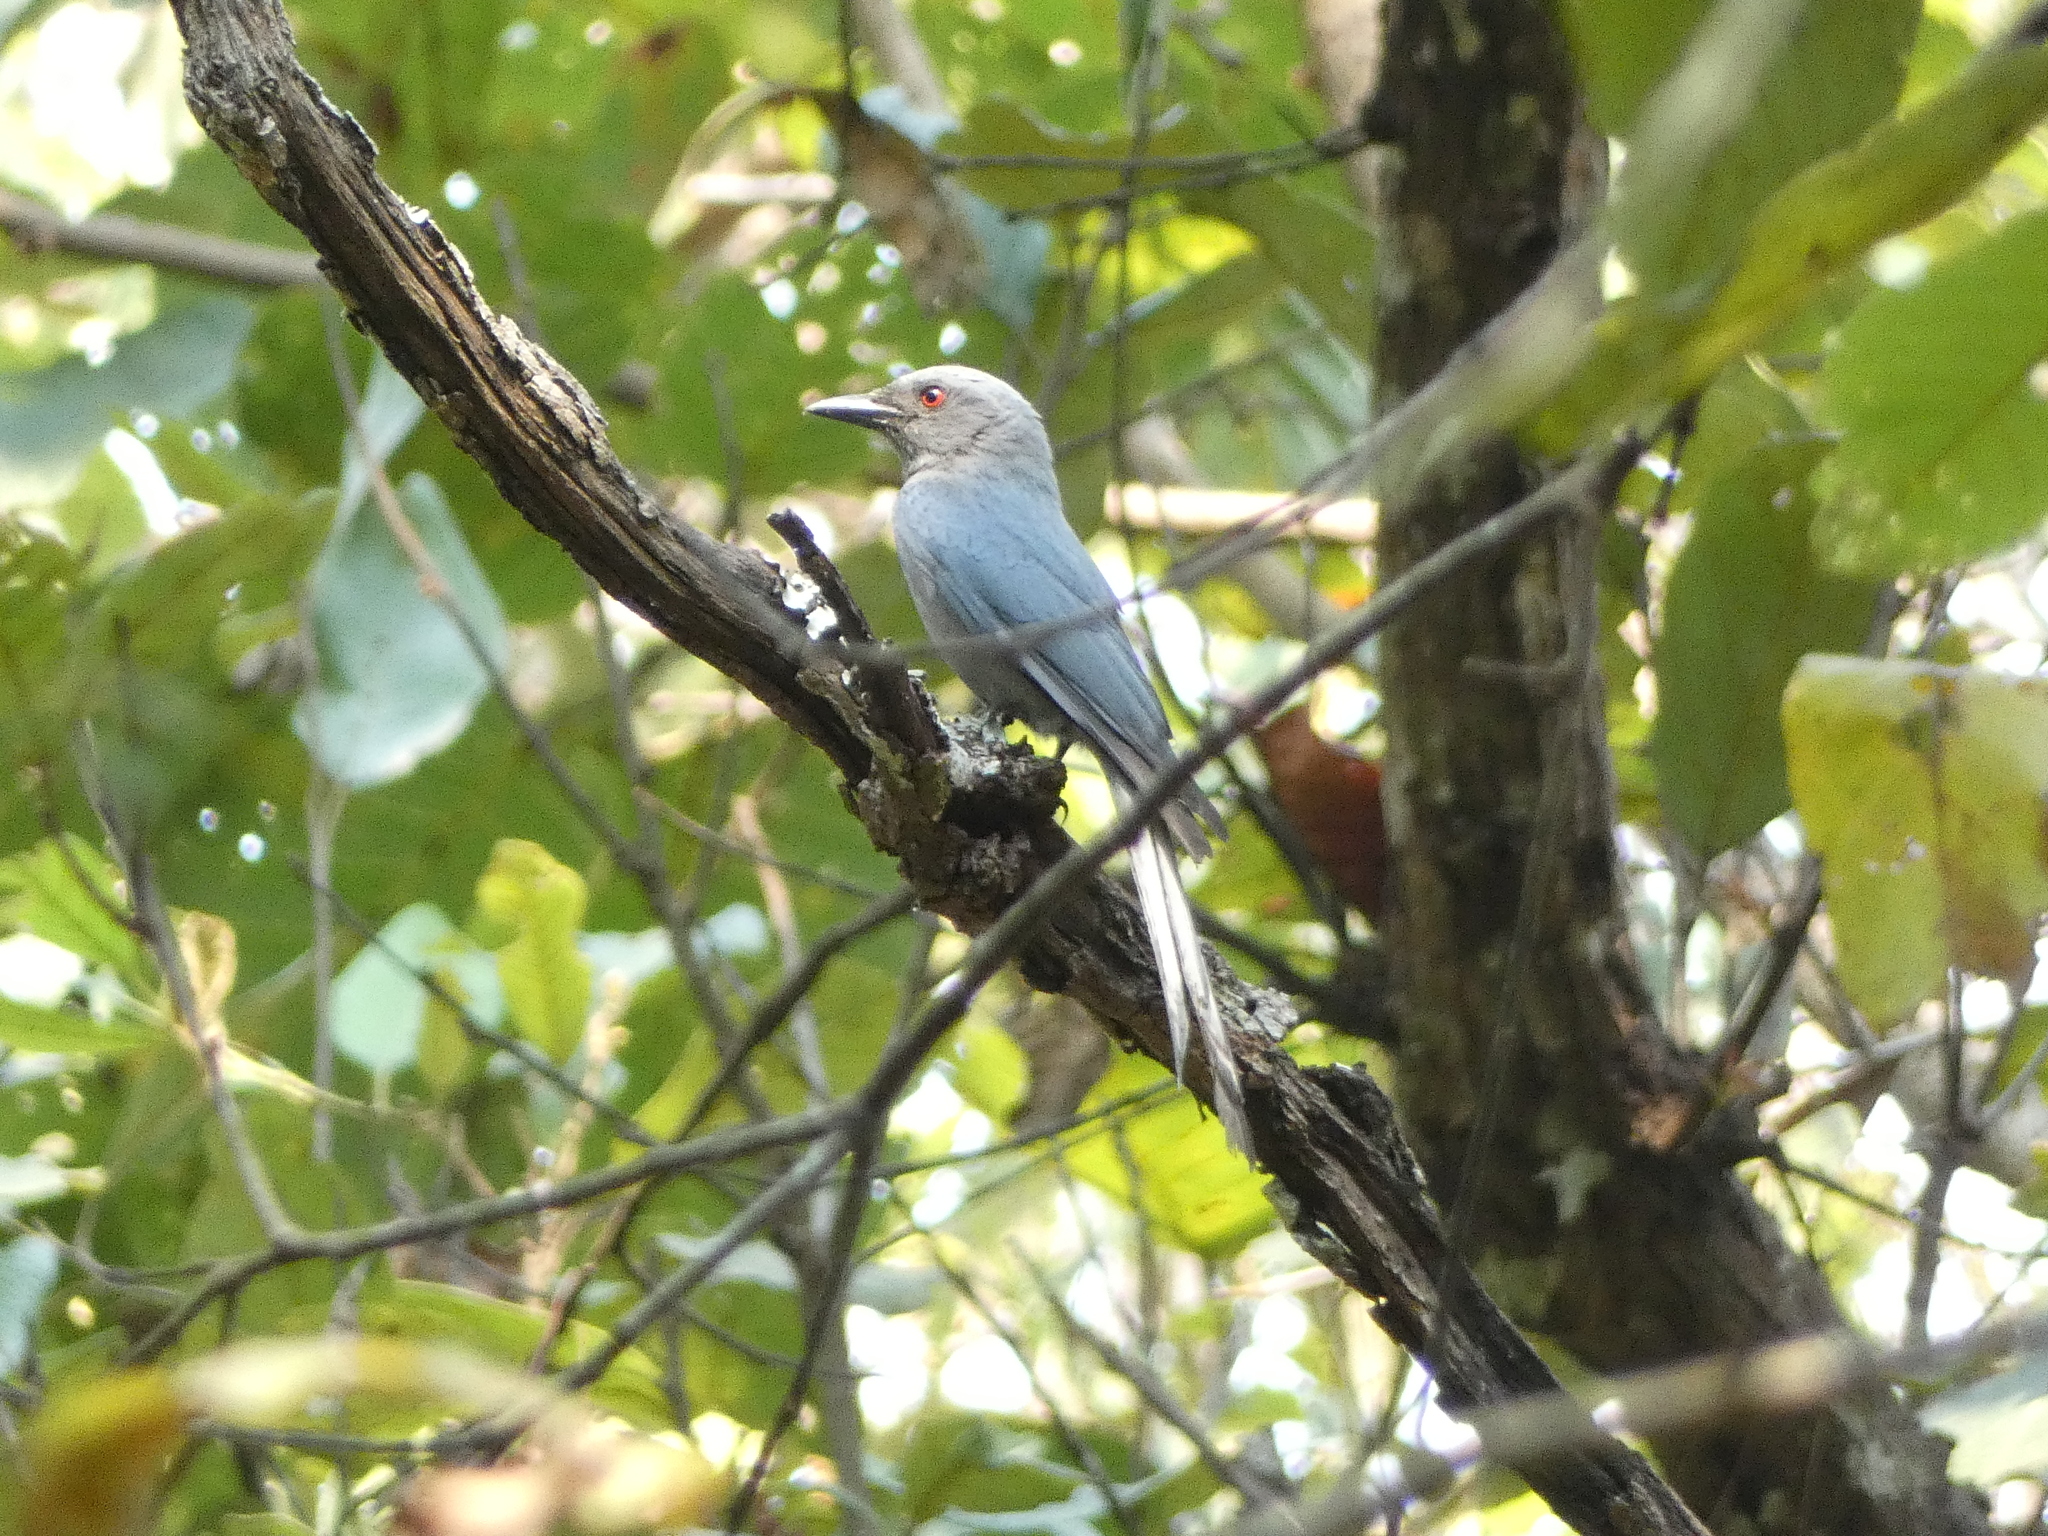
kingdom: Animalia
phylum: Chordata
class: Aves
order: Passeriformes
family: Dicruridae
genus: Dicrurus
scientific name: Dicrurus leucophaeus
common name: Ashy drongo
